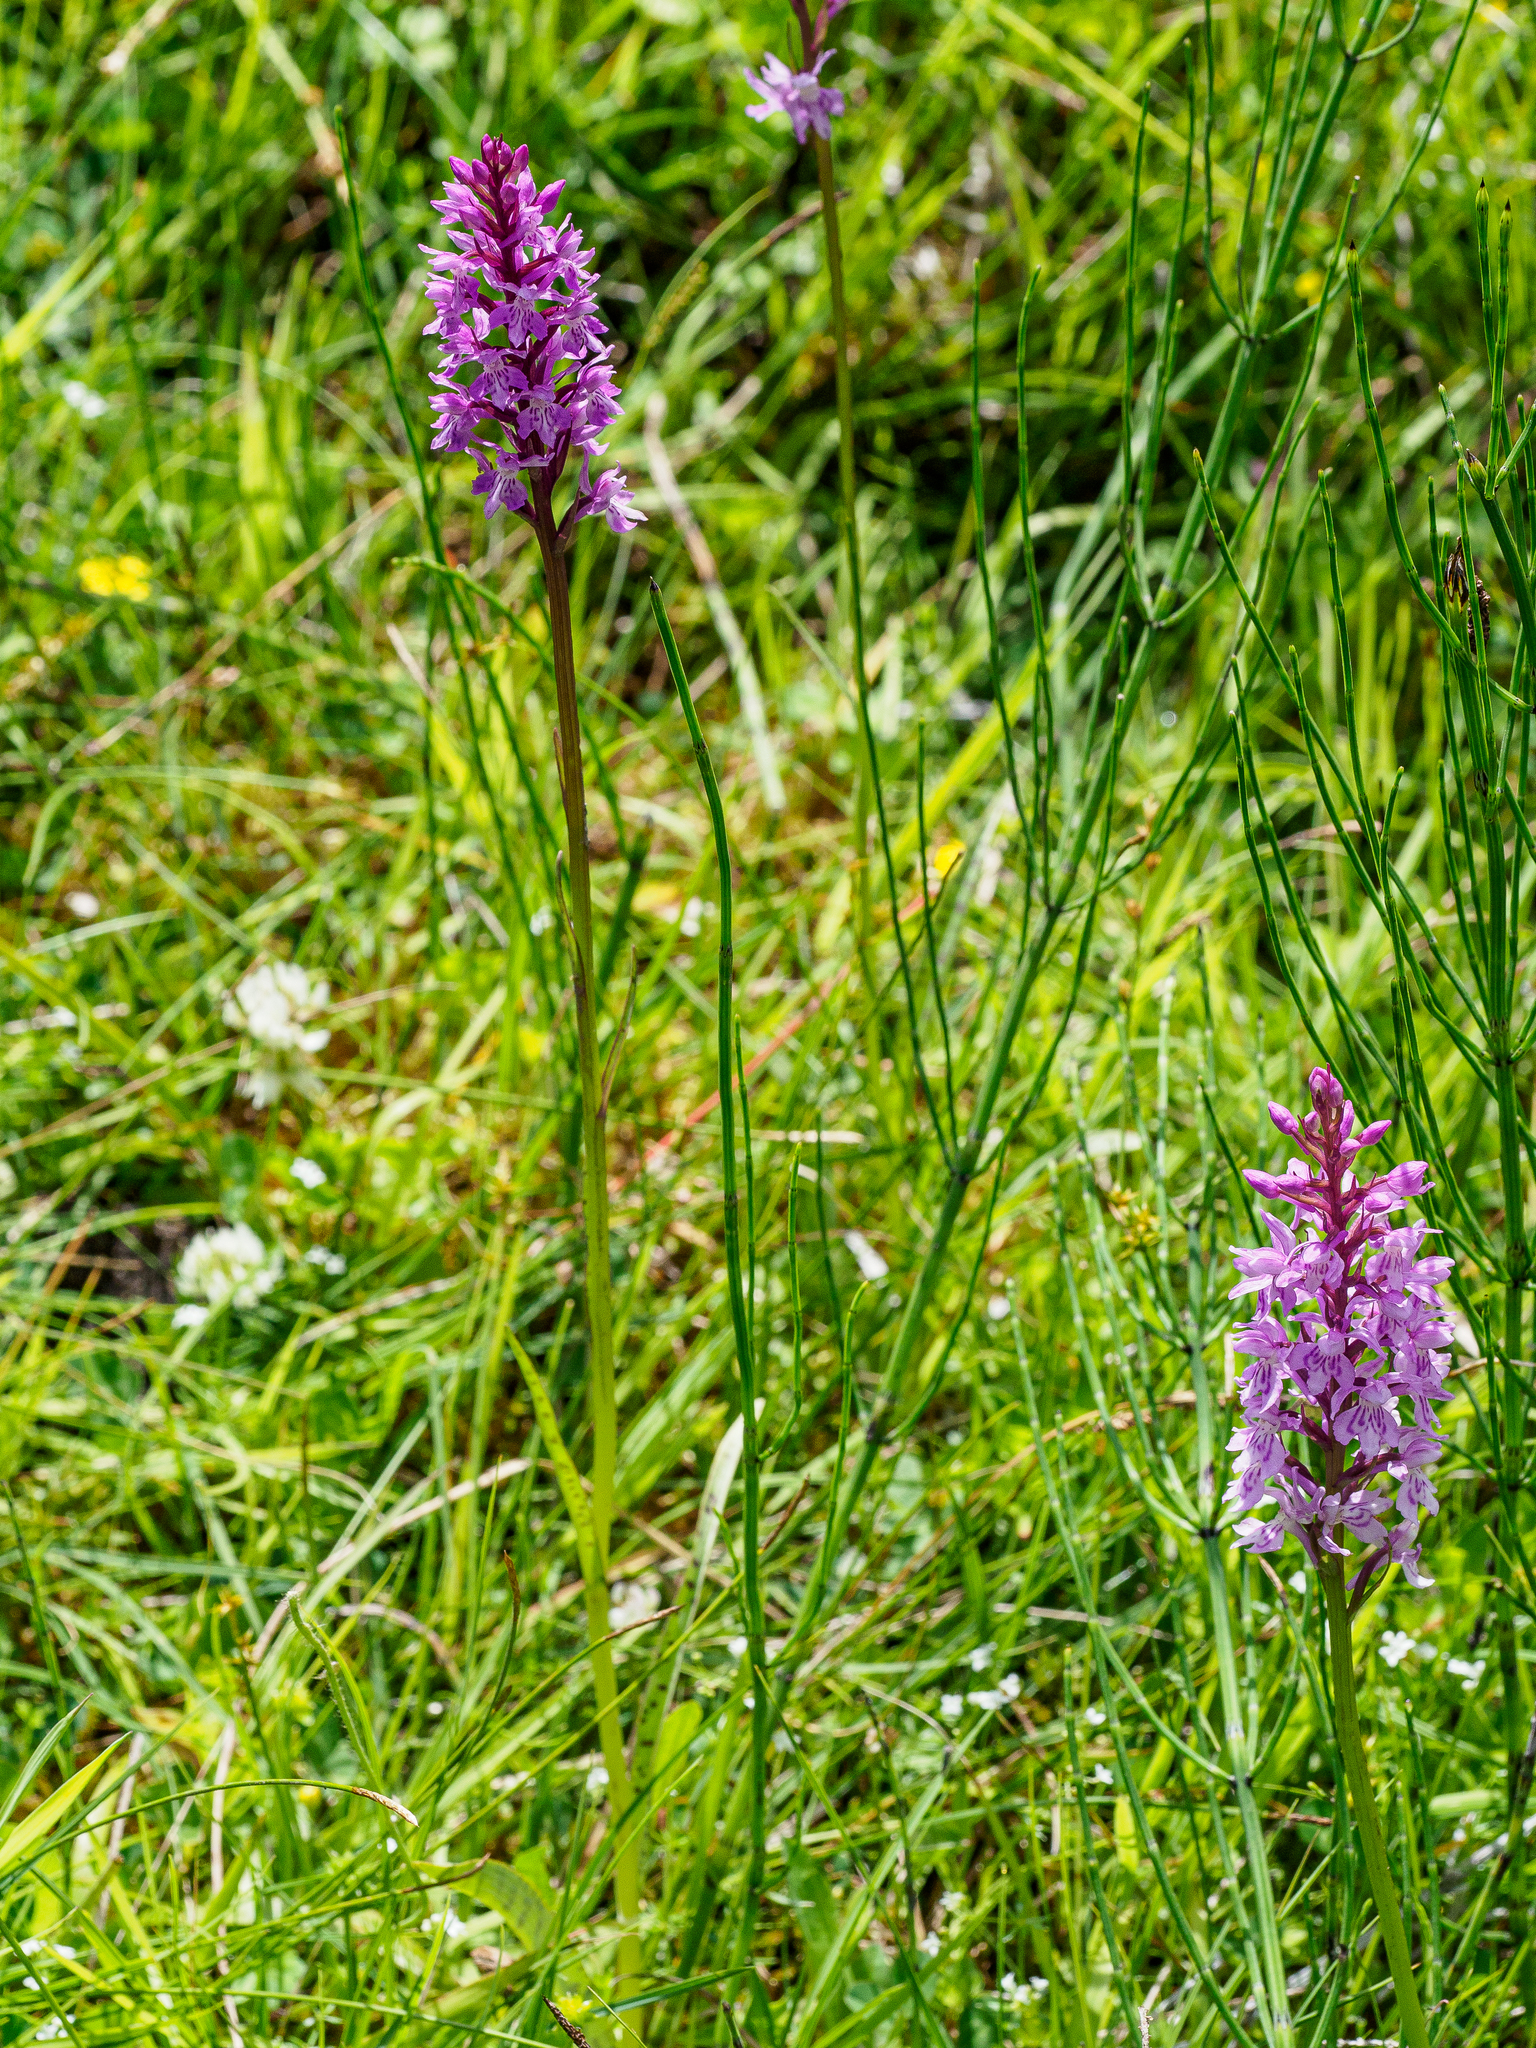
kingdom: Plantae
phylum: Tracheophyta
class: Liliopsida
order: Asparagales
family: Orchidaceae
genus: Dactylorhiza
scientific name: Dactylorhiza maculata
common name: Heath spotted-orchid
